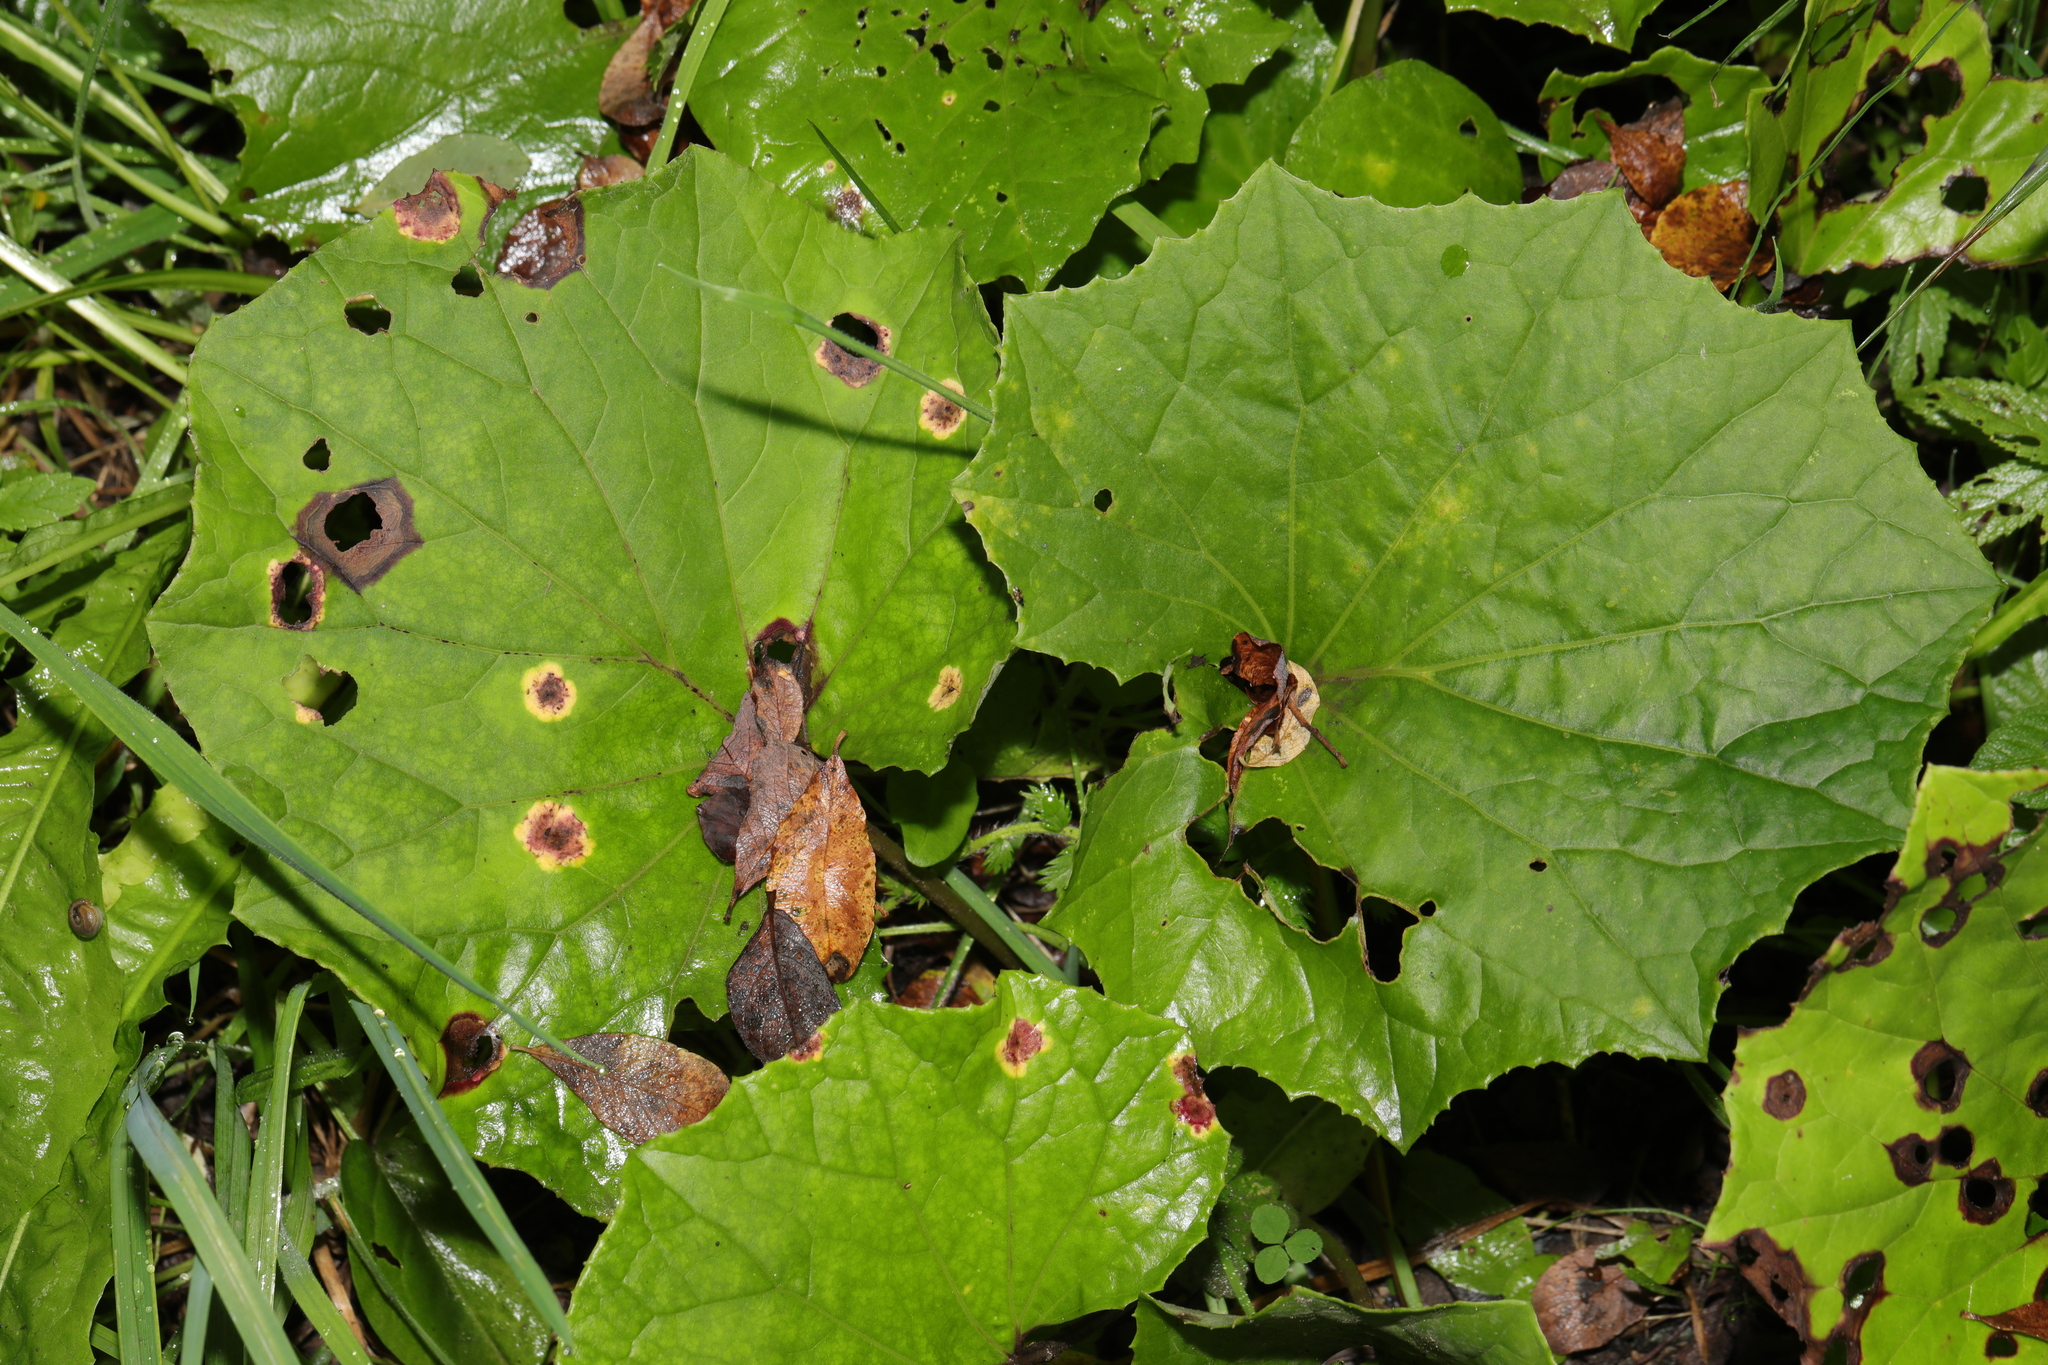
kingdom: Plantae
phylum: Tracheophyta
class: Magnoliopsida
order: Asterales
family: Asteraceae
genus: Tussilago
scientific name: Tussilago farfara
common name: Coltsfoot
